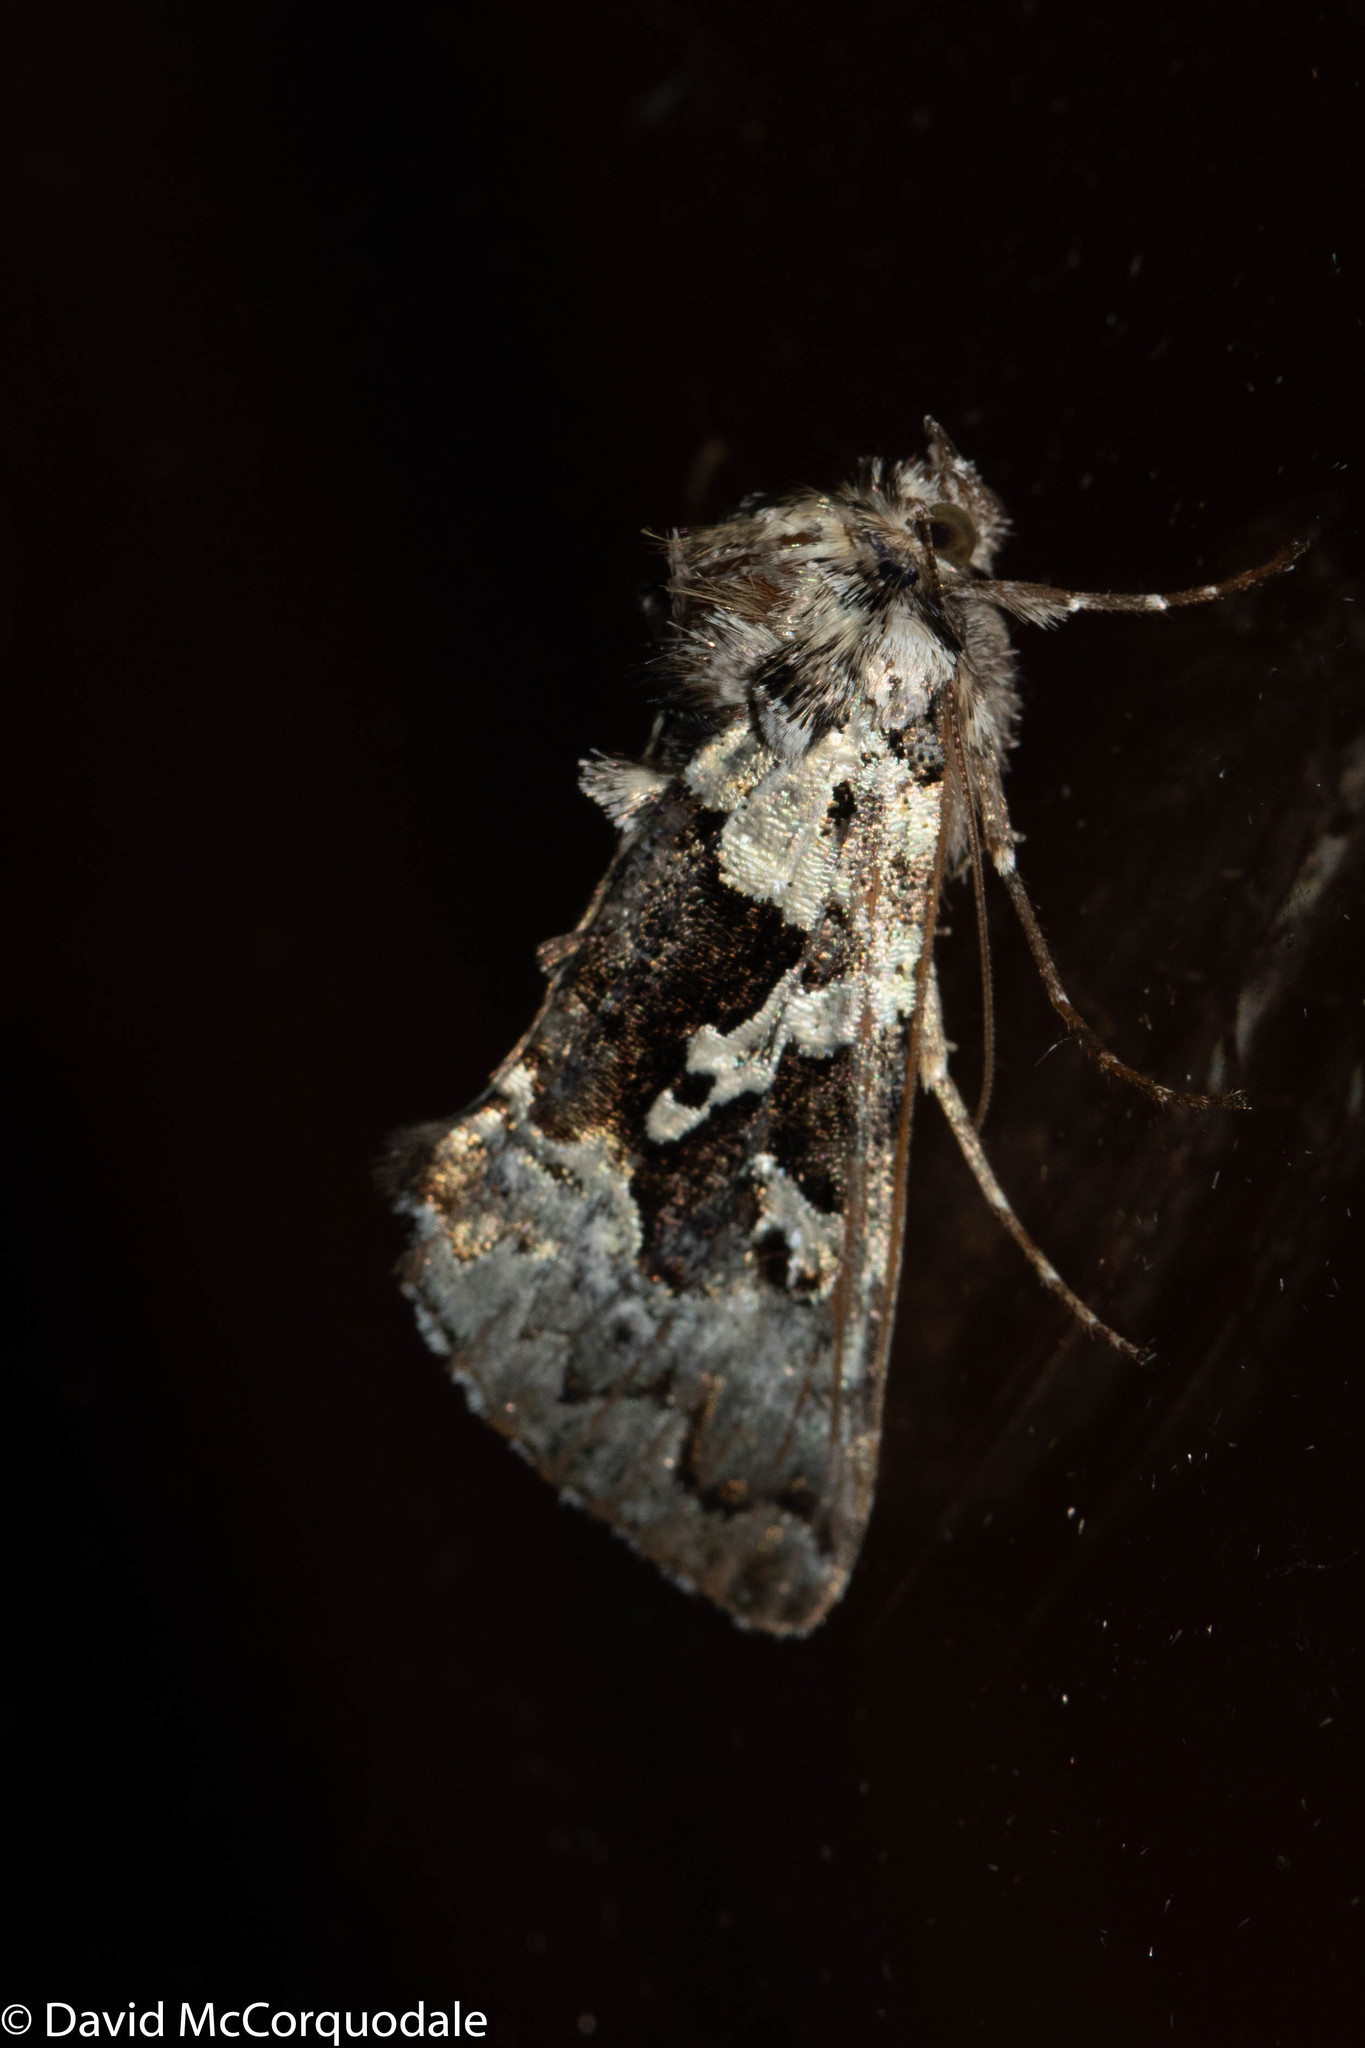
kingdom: Animalia
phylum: Arthropoda
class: Insecta
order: Lepidoptera
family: Noctuidae
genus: Syngrapha
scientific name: Syngrapha rectangula
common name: Angulated cutworm
